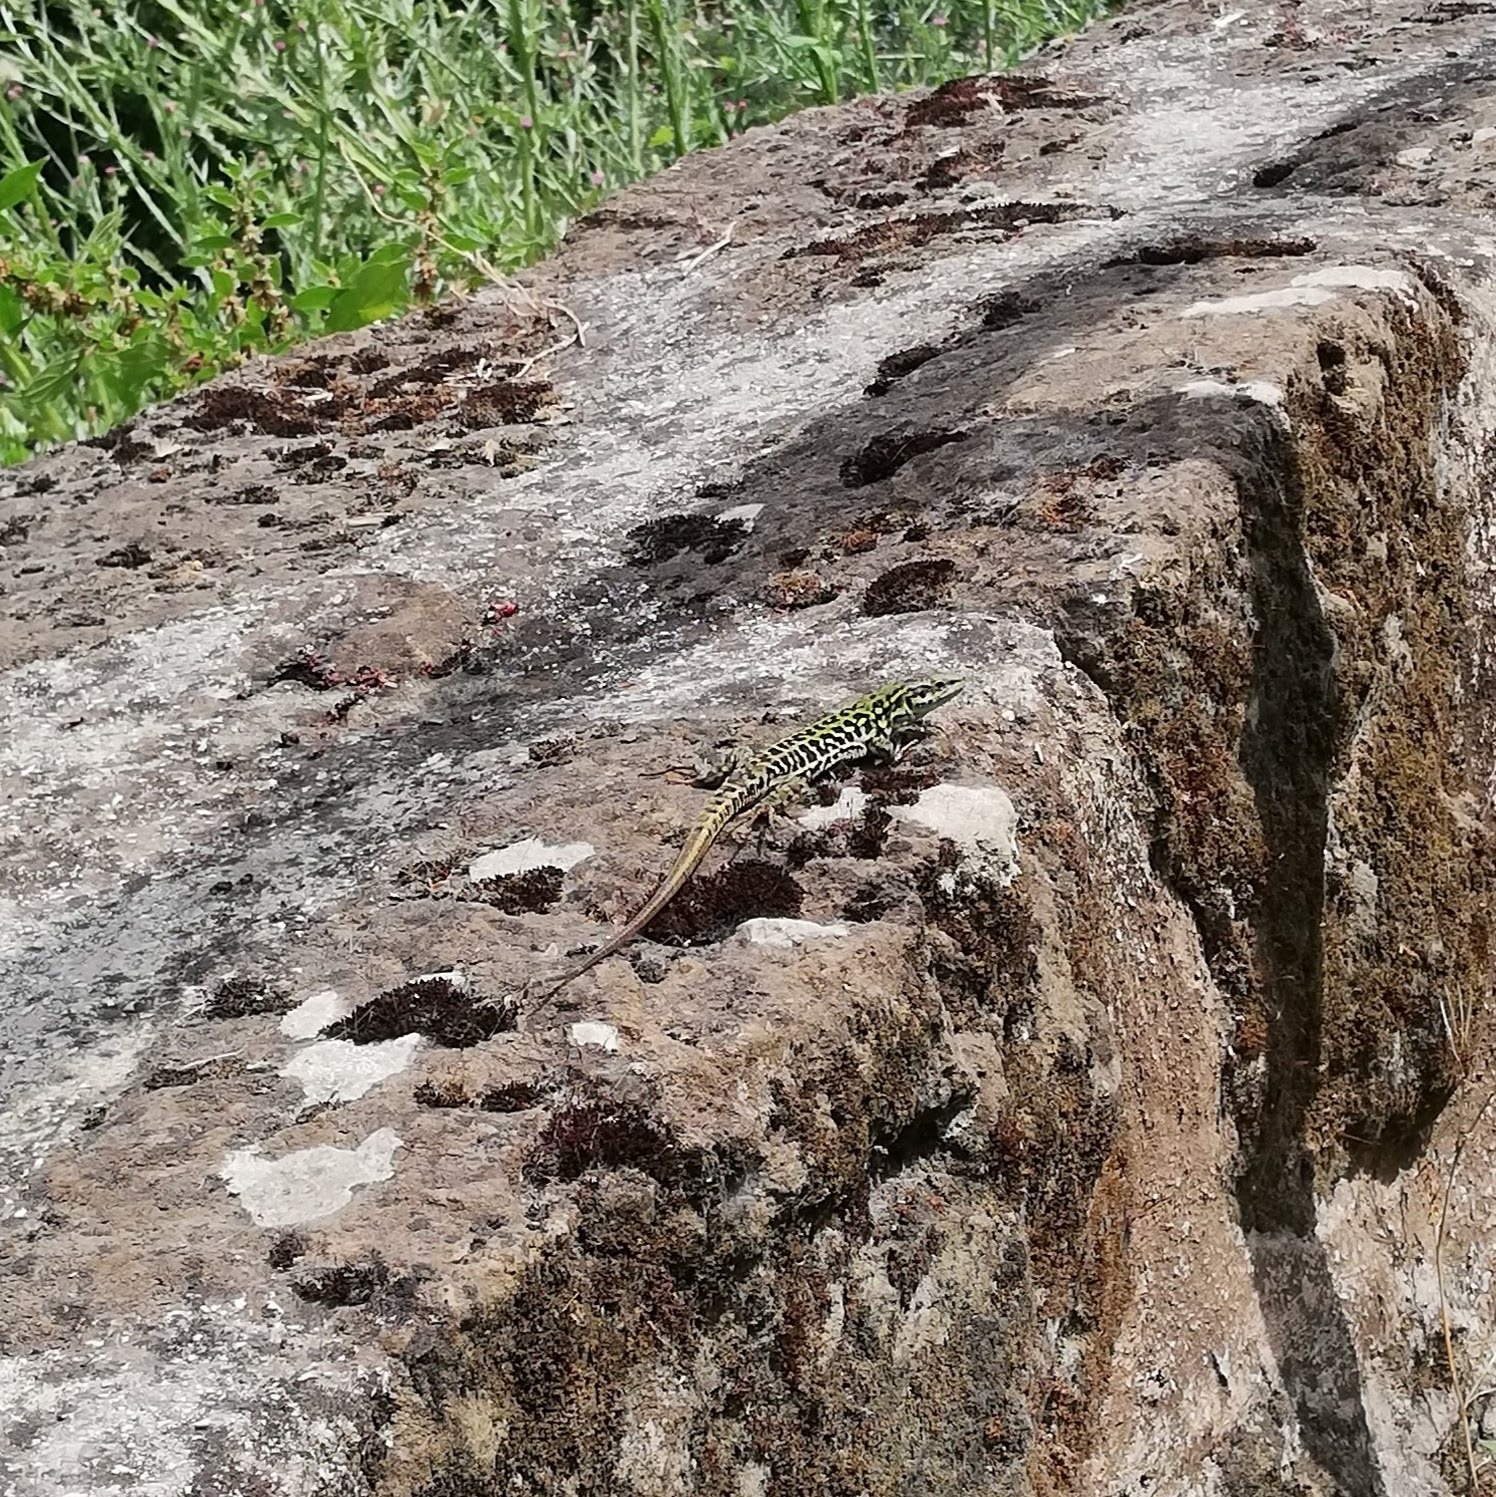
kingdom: Animalia
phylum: Chordata
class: Squamata
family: Lacertidae
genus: Podarcis
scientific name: Podarcis siculus
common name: Italian wall lizard
